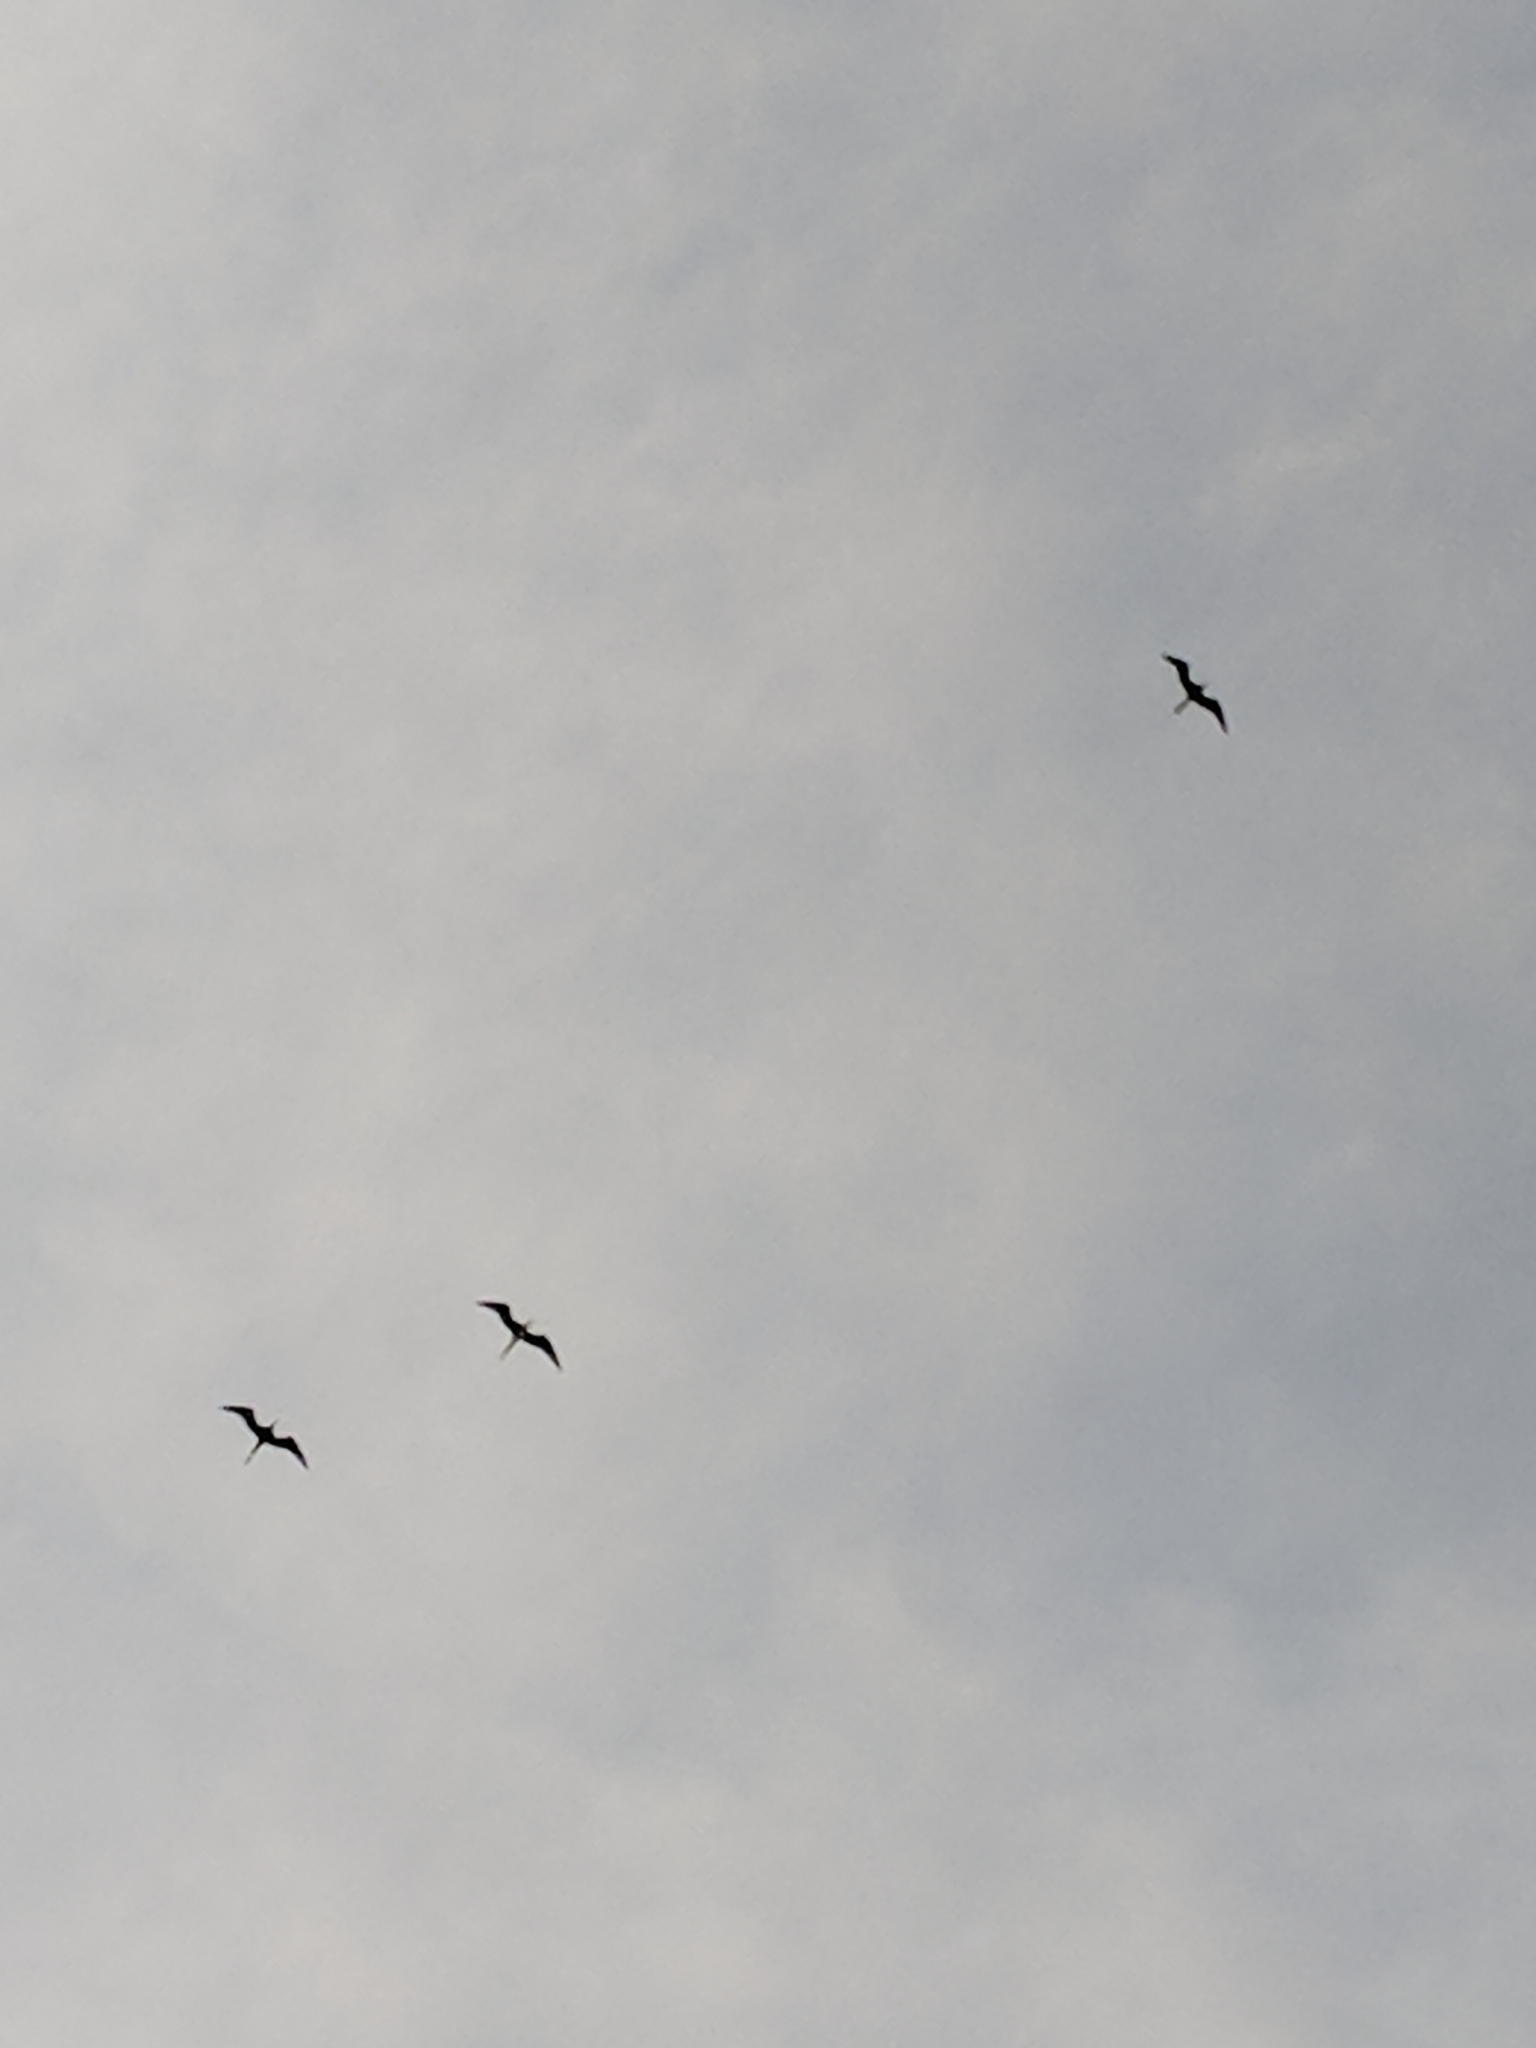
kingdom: Animalia
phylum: Chordata
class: Aves
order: Suliformes
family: Fregatidae
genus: Fregata
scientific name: Fregata magnificens
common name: Magnificent frigatebird
